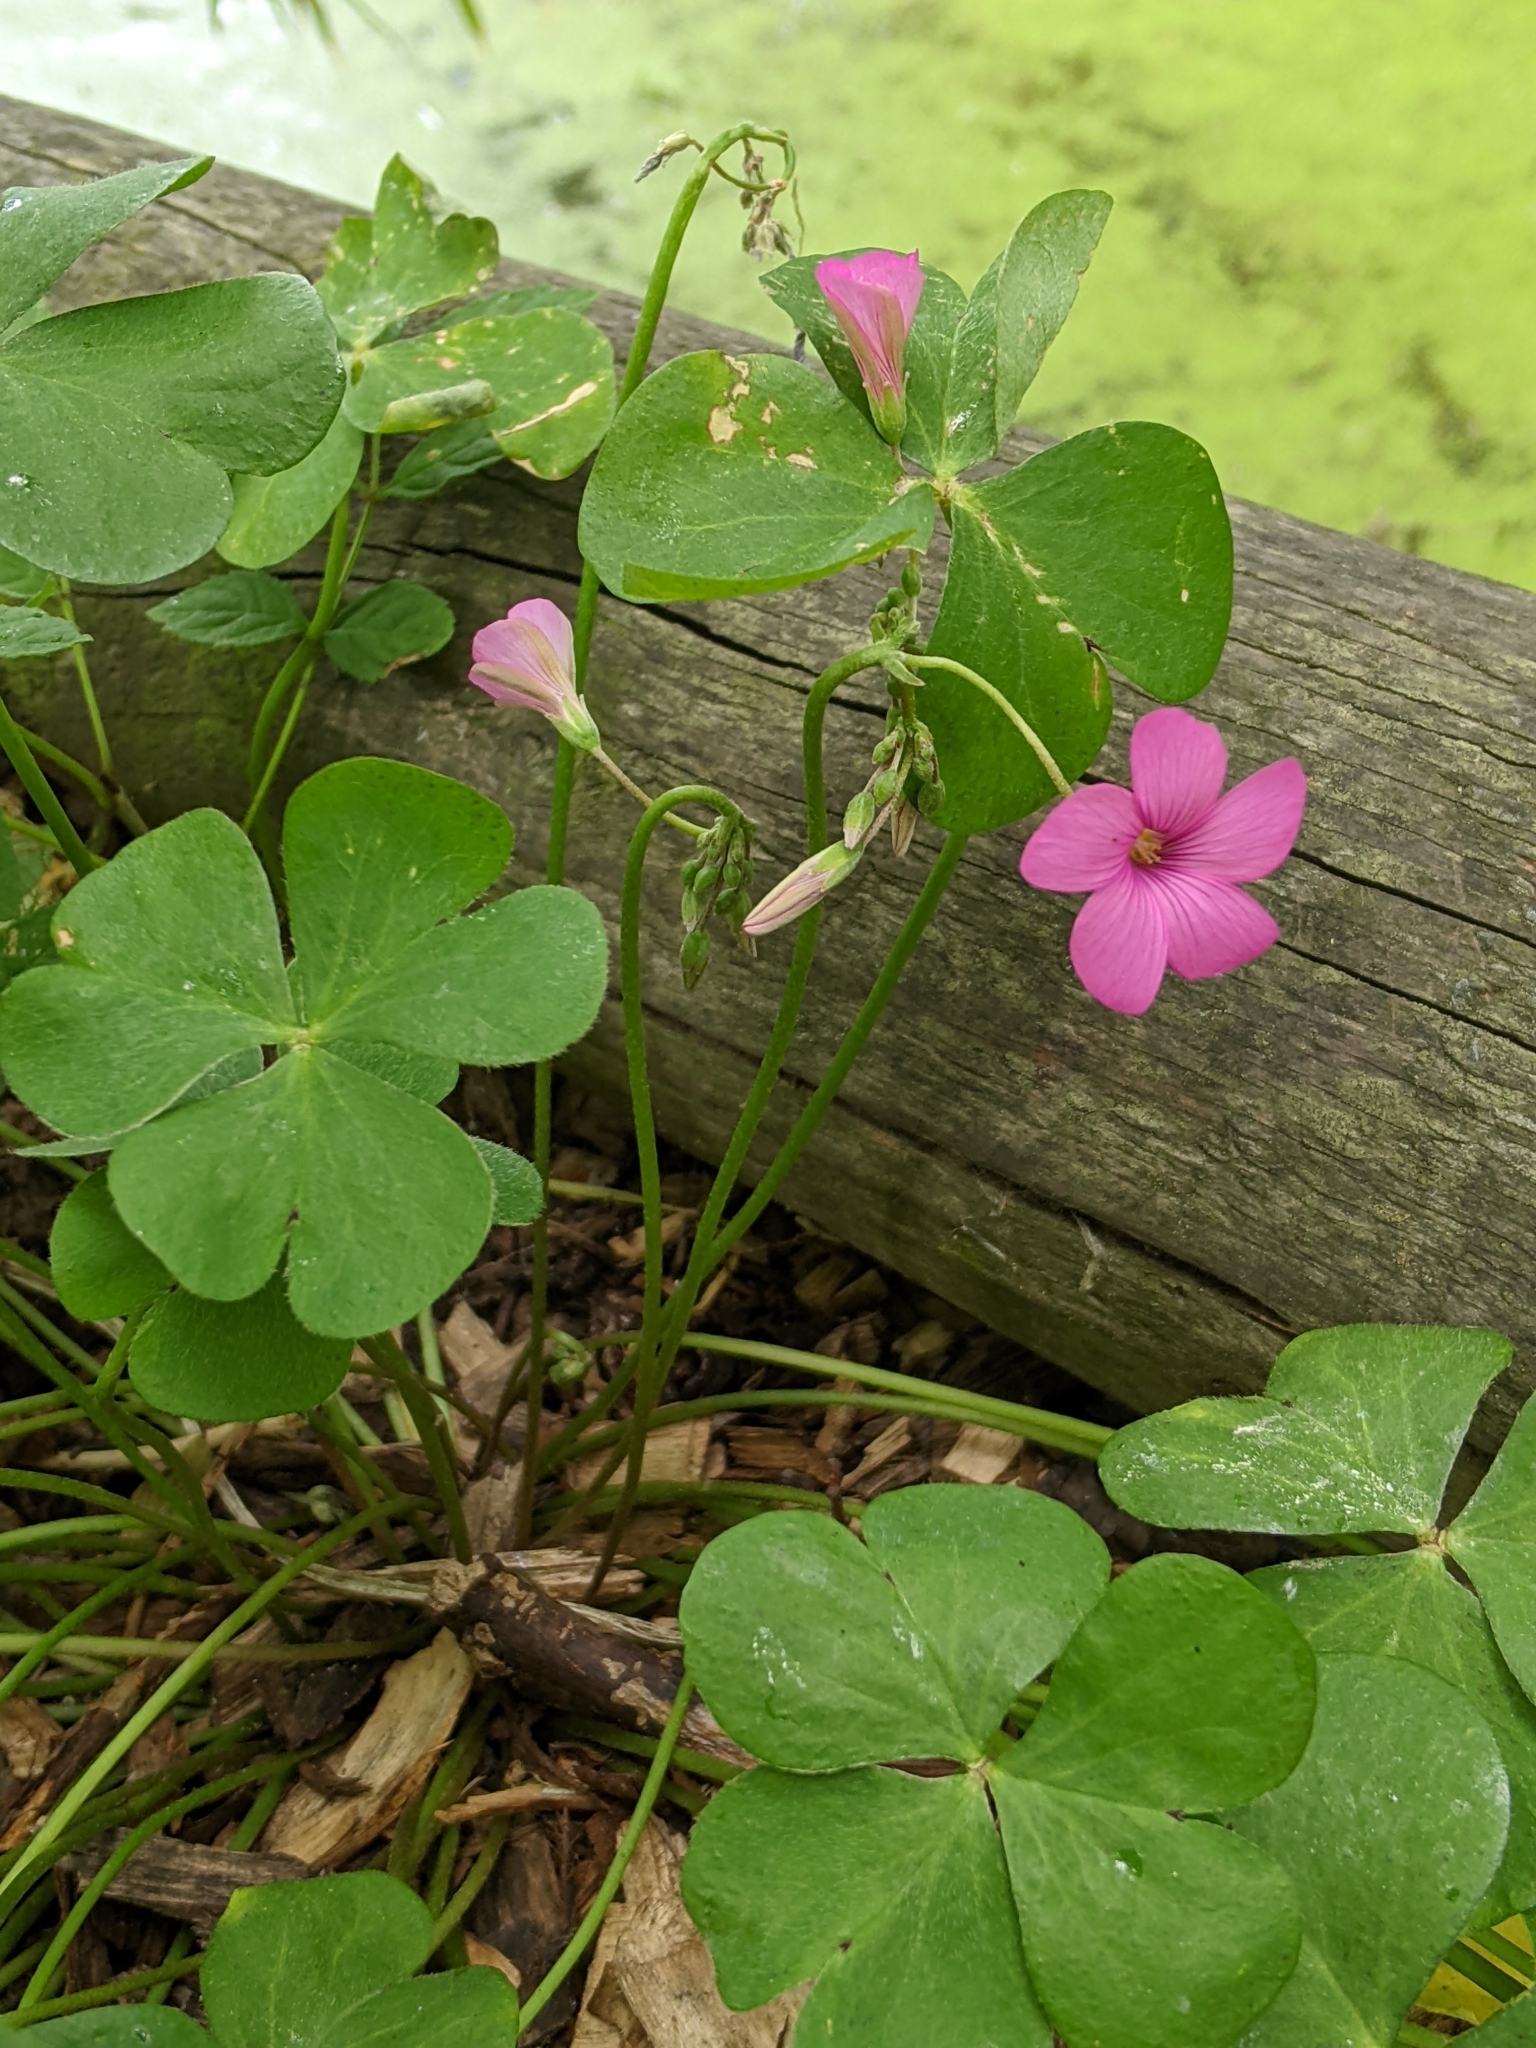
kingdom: Plantae
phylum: Tracheophyta
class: Magnoliopsida
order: Oxalidales
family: Oxalidaceae
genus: Oxalis
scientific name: Oxalis articulata
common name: Pink-sorrel
